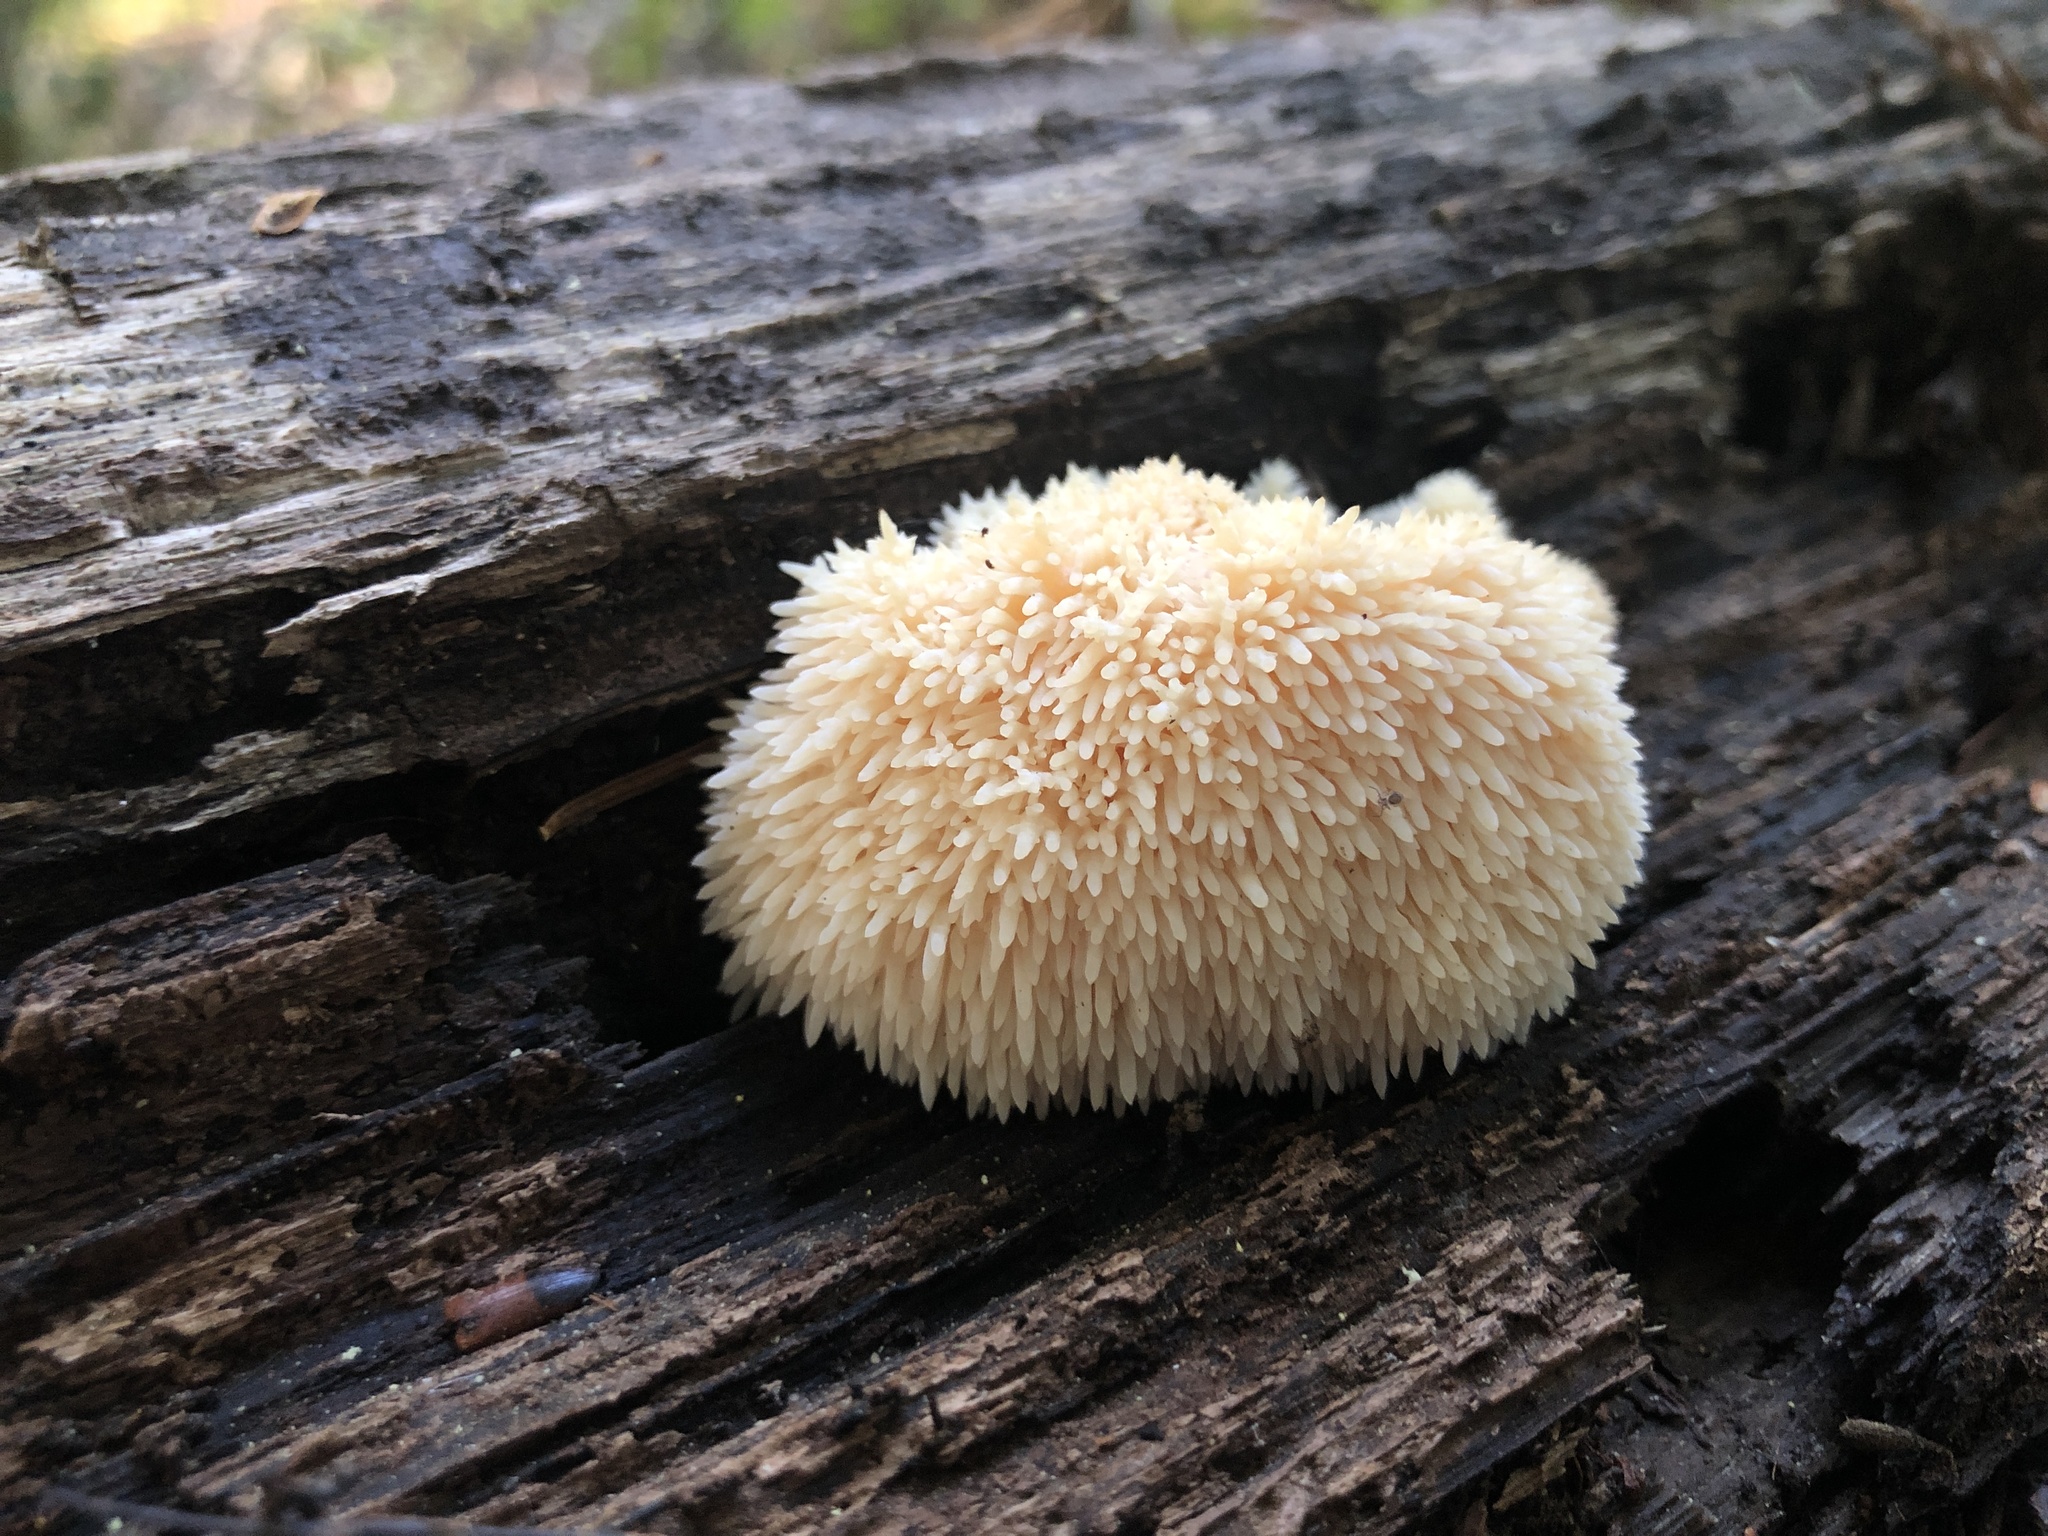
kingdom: Fungi
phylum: Basidiomycota
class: Agaricomycetes
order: Russulales
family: Hericiaceae
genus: Hericium
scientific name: Hericium erinaceus
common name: Bearded tooth
